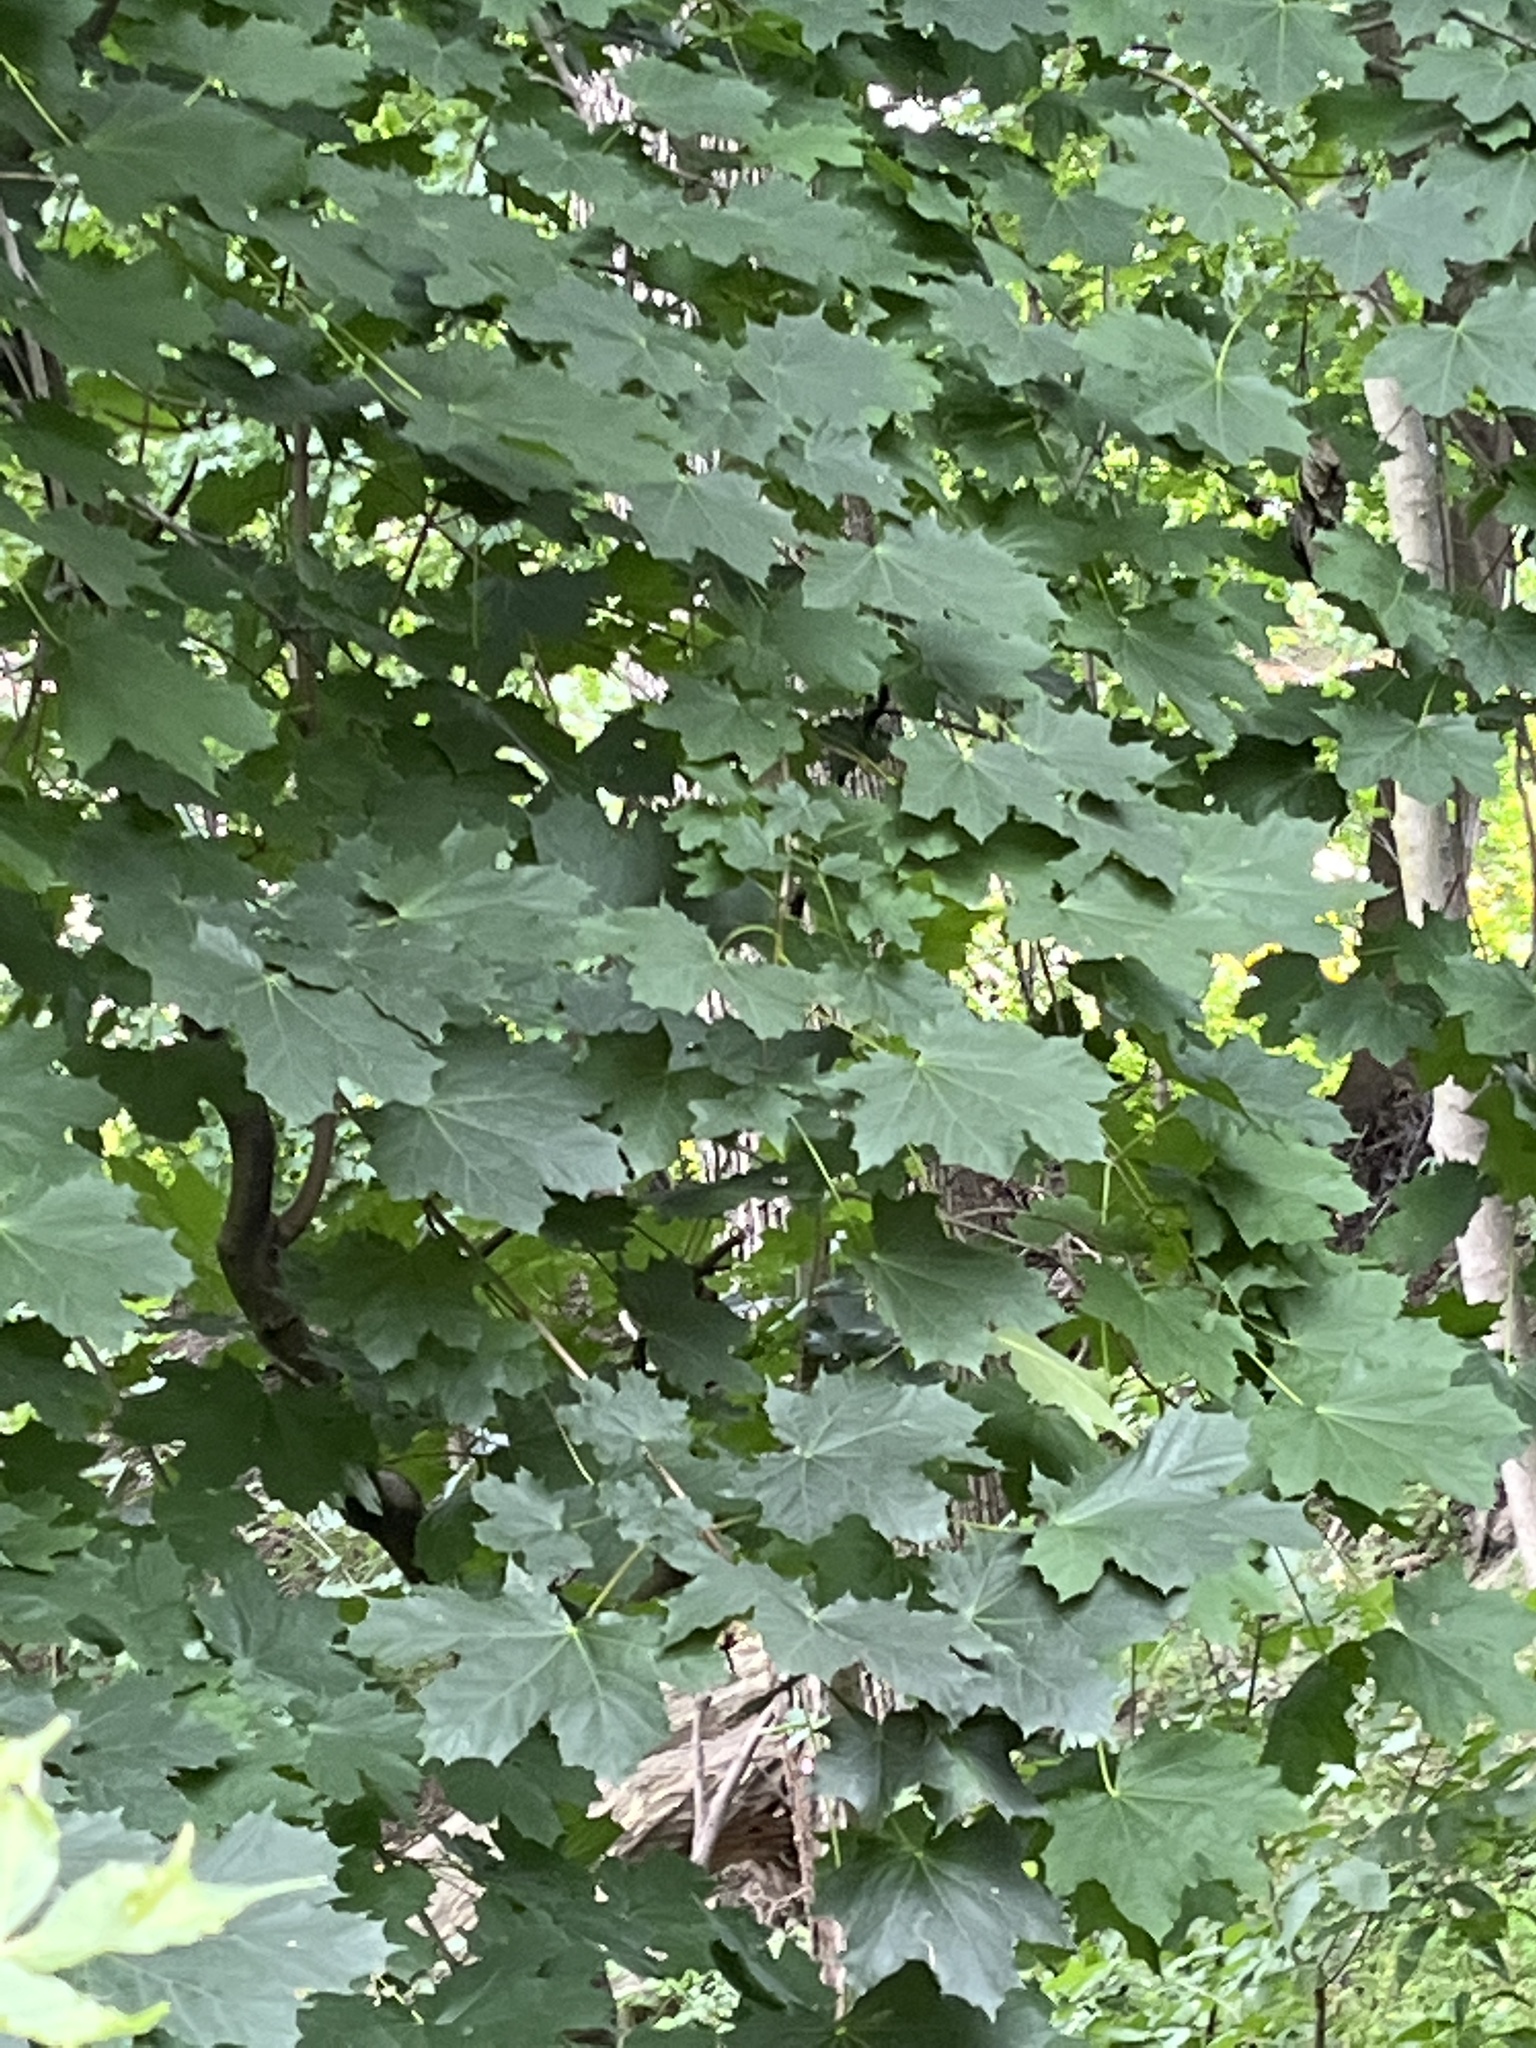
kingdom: Plantae
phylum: Tracheophyta
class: Magnoliopsida
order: Sapindales
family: Sapindaceae
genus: Acer
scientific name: Acer platanoides
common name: Norway maple
